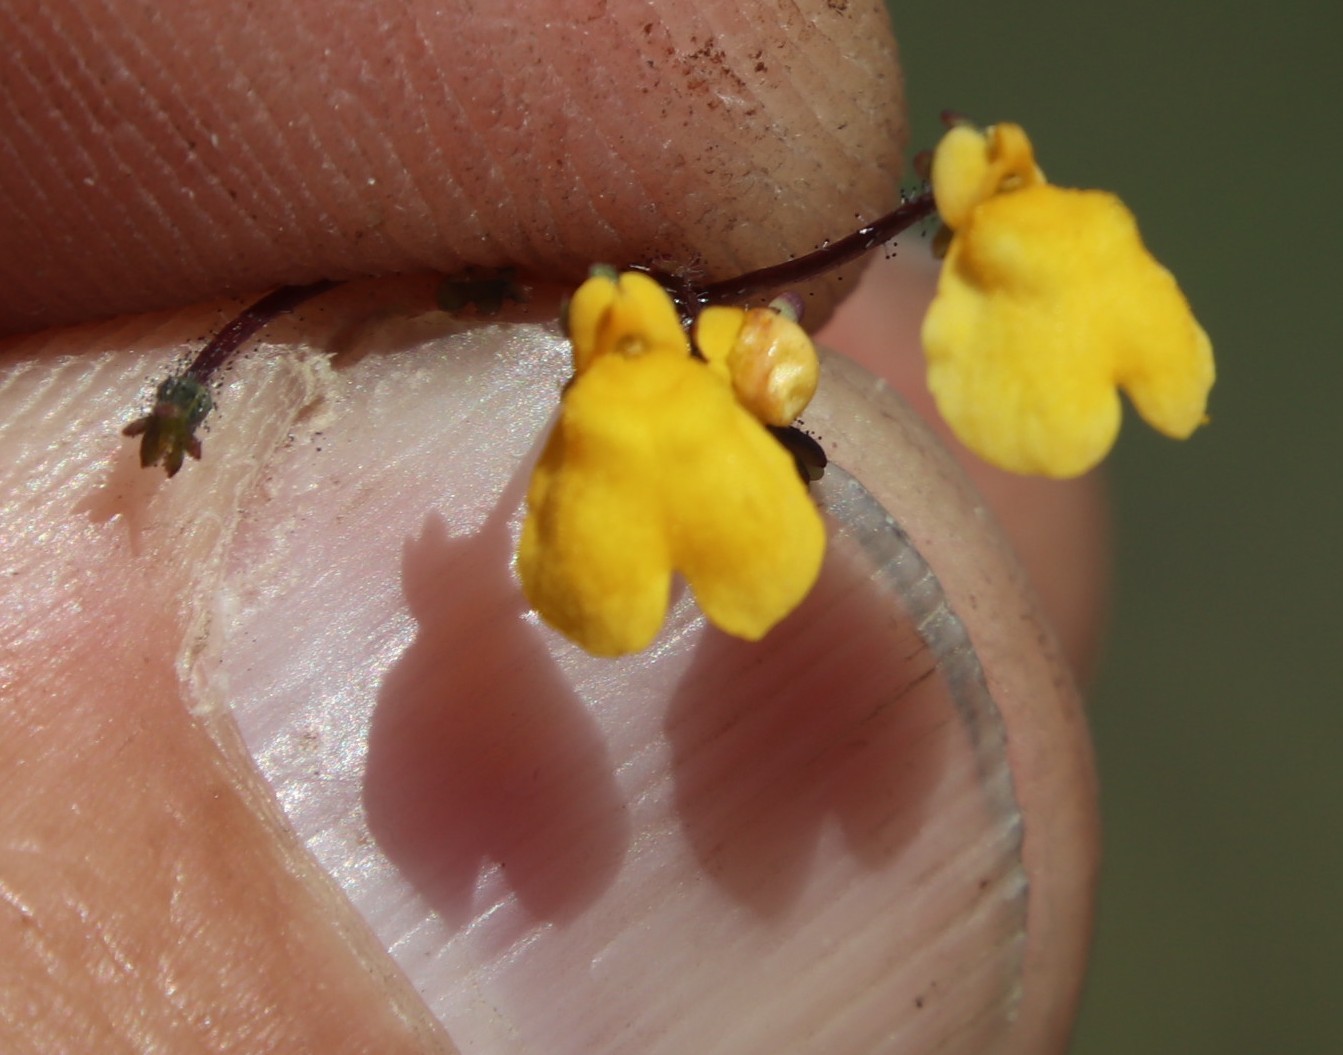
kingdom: Plantae
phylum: Tracheophyta
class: Magnoliopsida
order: Lamiales
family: Scrophulariaceae
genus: Nemesia
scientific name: Nemesia pinnata
